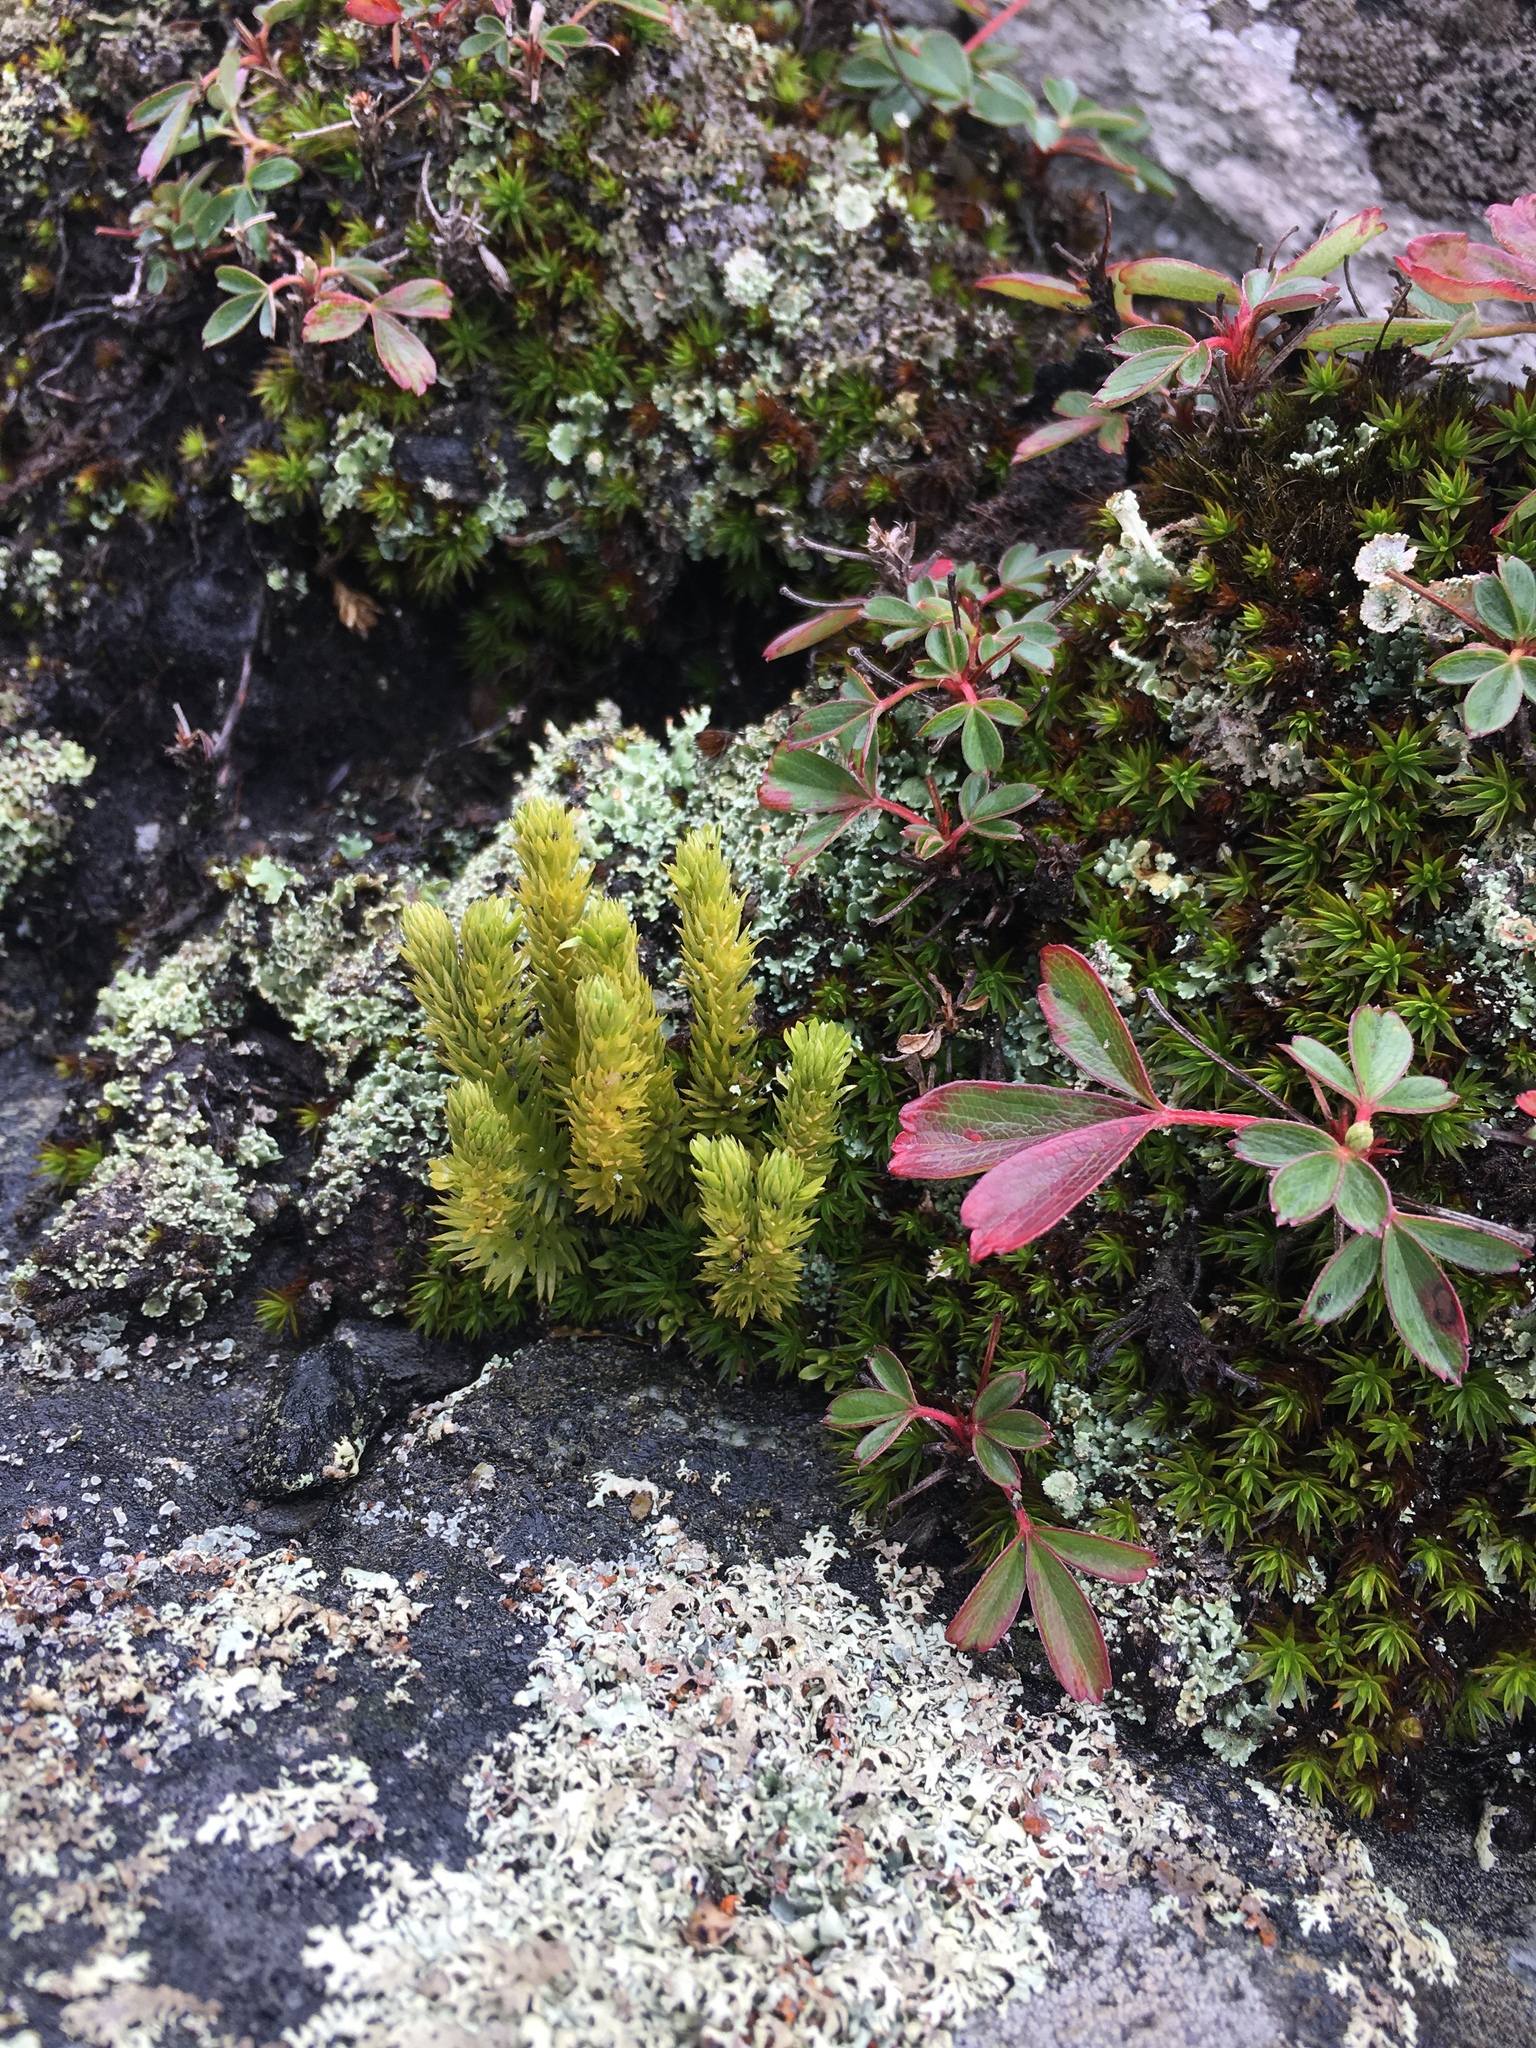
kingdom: Plantae
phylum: Tracheophyta
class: Lycopodiopsida
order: Lycopodiales
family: Lycopodiaceae
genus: Huperzia
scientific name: Huperzia selago
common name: Northern firmoss
